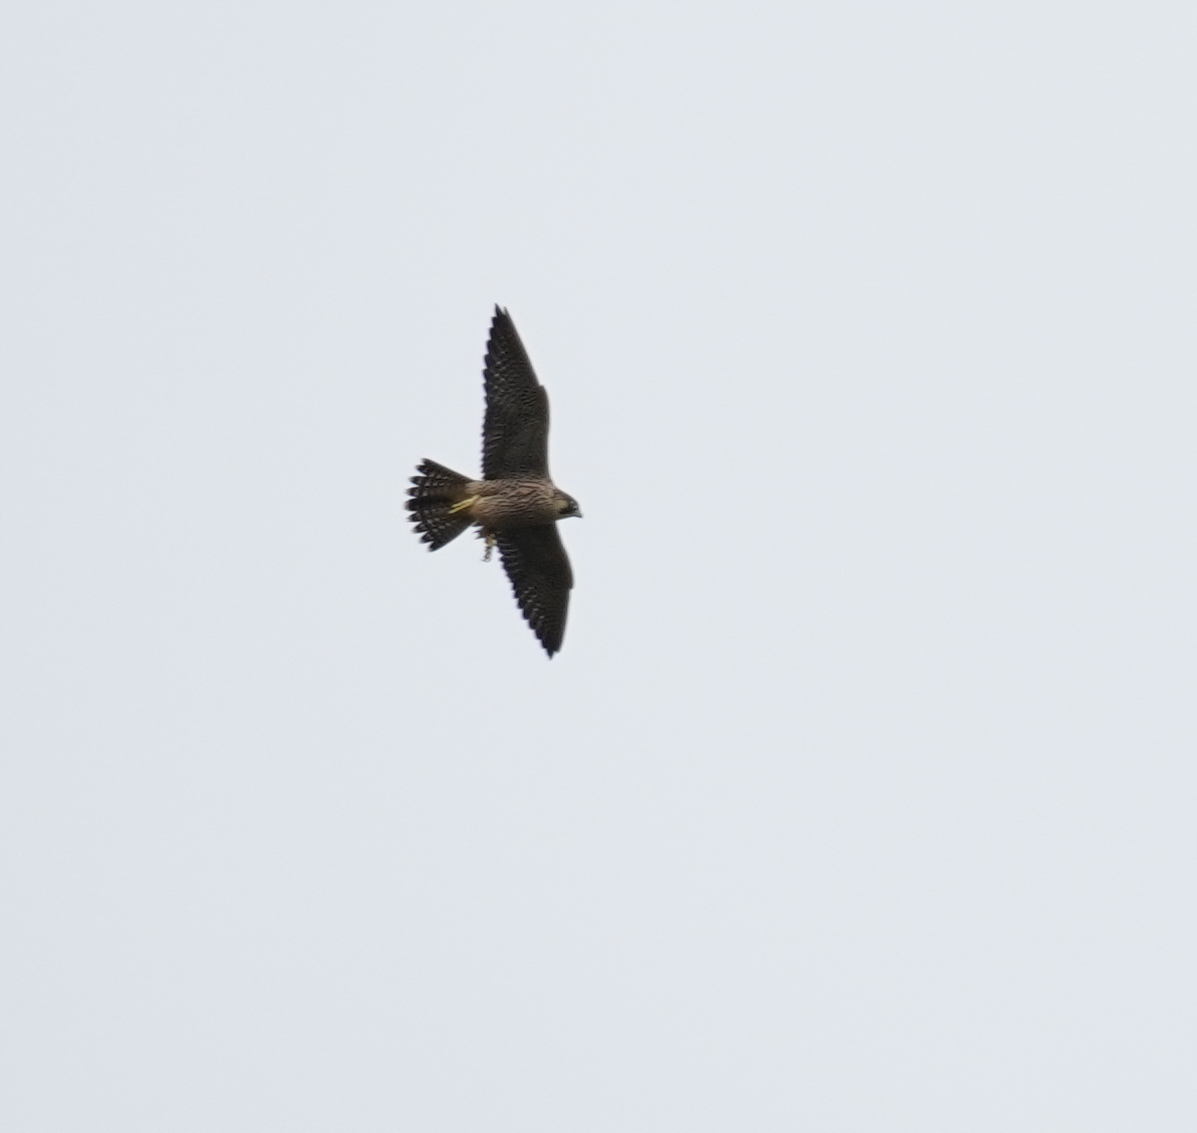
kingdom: Animalia
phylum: Chordata
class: Aves
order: Falconiformes
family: Falconidae
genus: Falco
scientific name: Falco peregrinus
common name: Peregrine falcon
